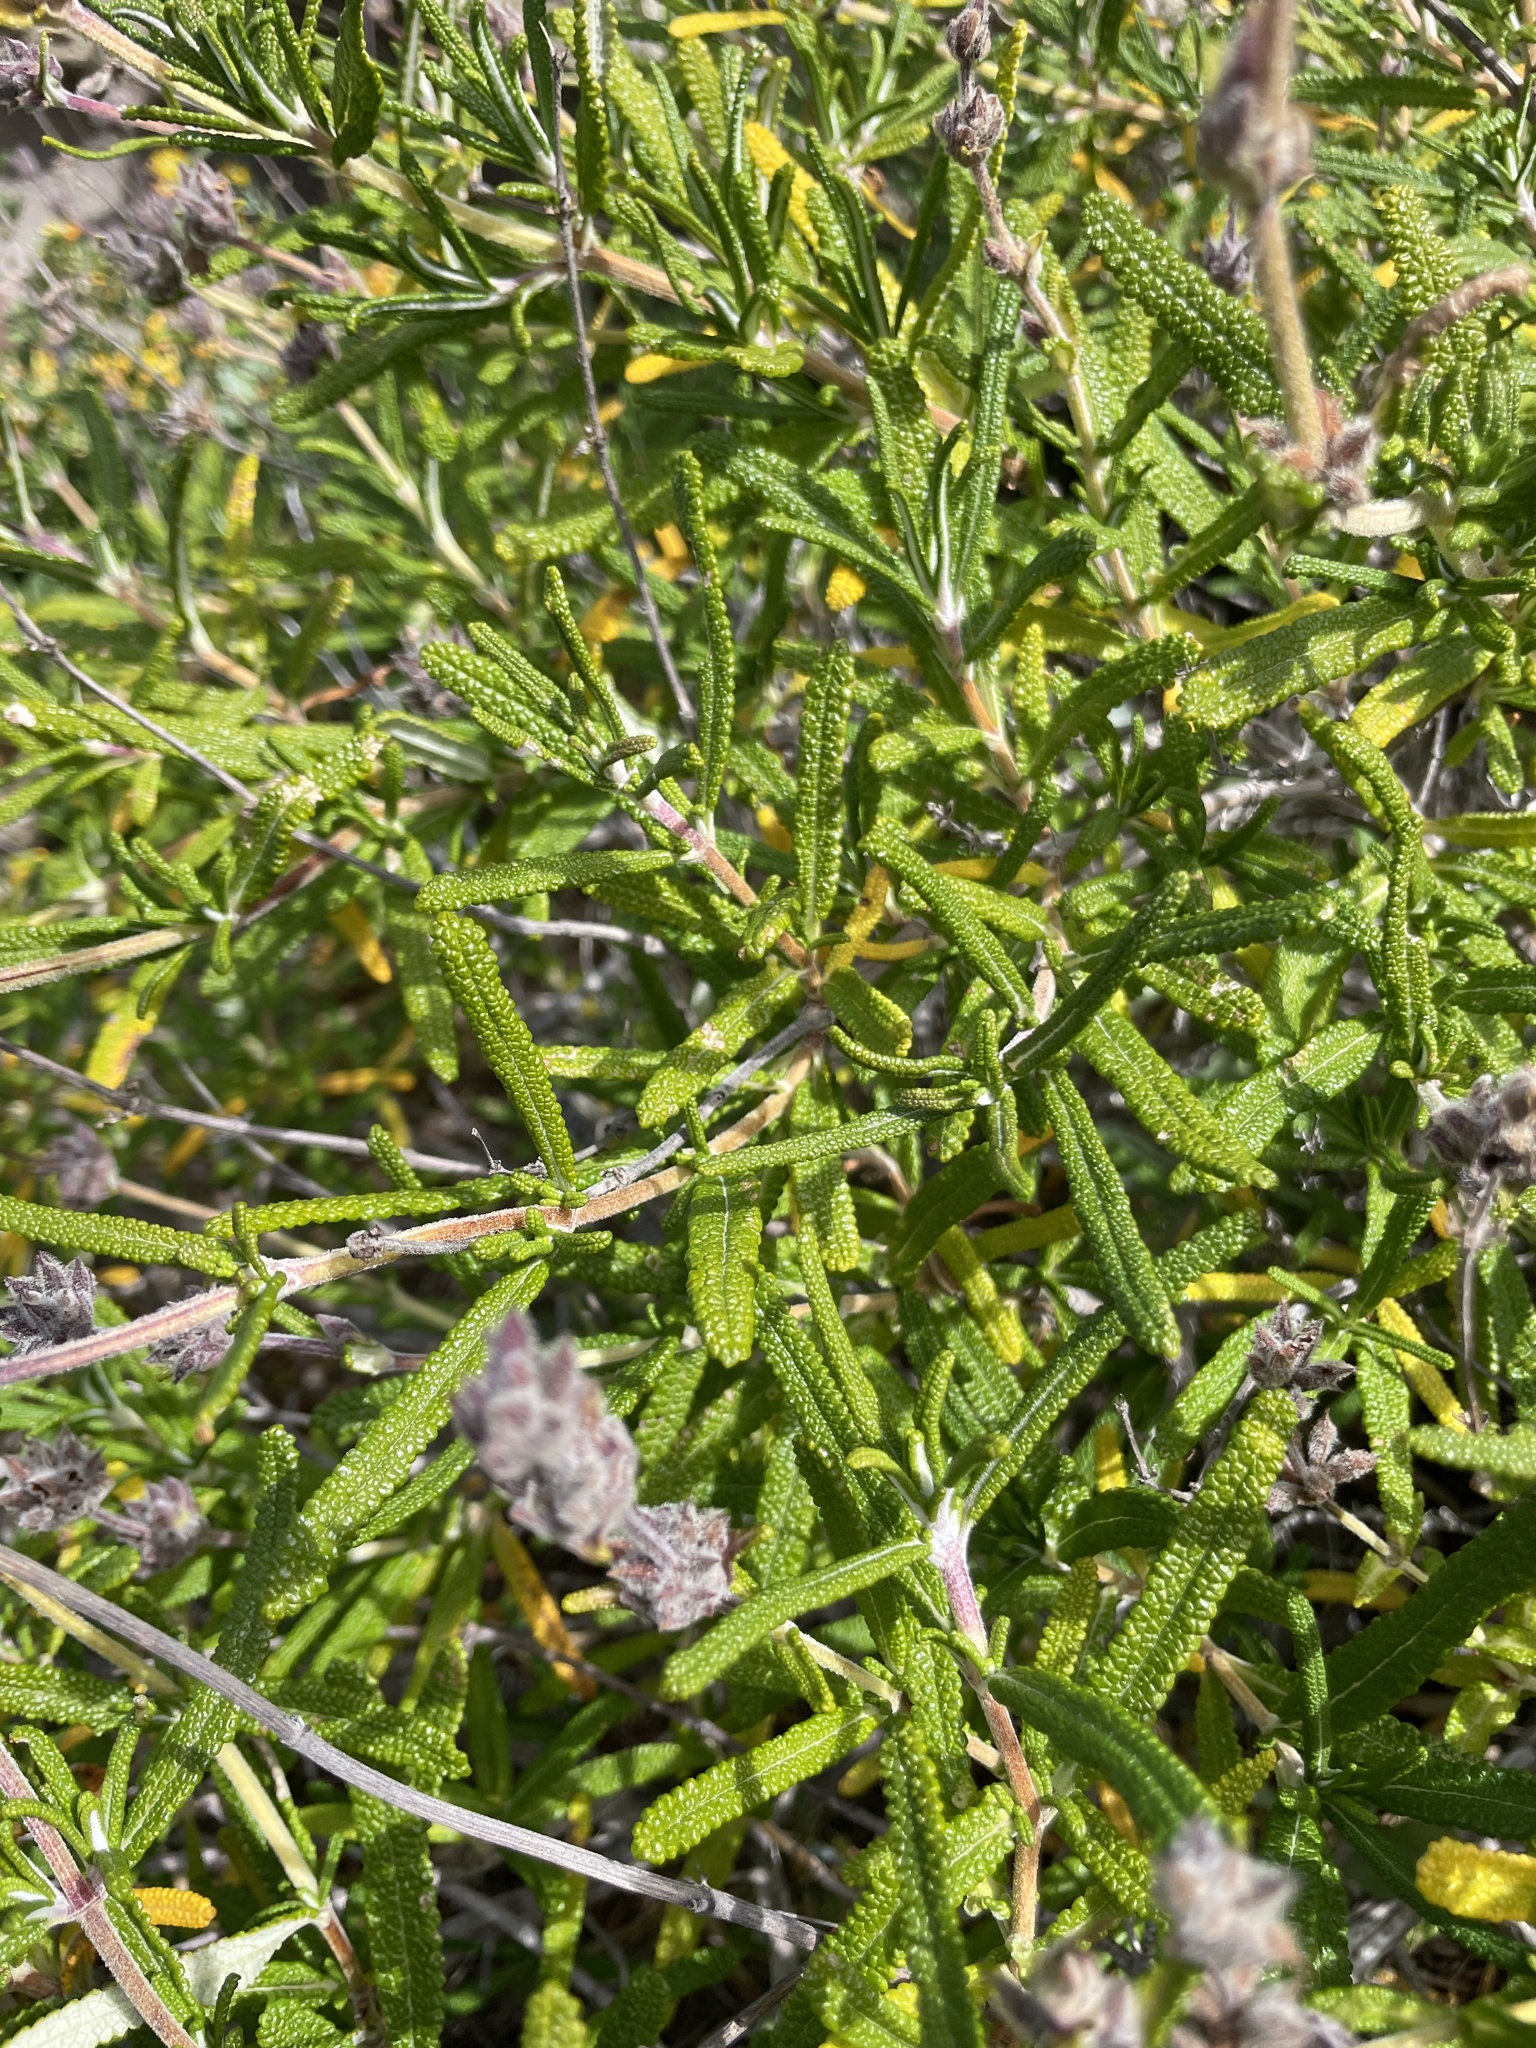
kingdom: Plantae
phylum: Tracheophyta
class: Magnoliopsida
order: Lamiales
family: Lamiaceae
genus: Salvia
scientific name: Salvia brandegeei
